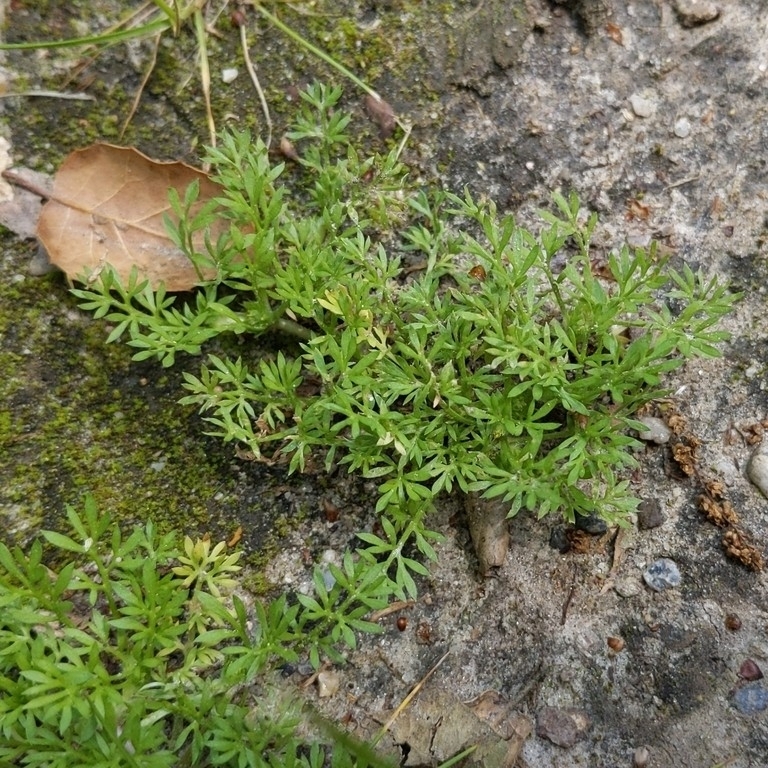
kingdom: Plantae
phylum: Tracheophyta
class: Magnoliopsida
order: Asterales
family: Asteraceae
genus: Soliva
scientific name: Soliva sessilis
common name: Field burrweed
